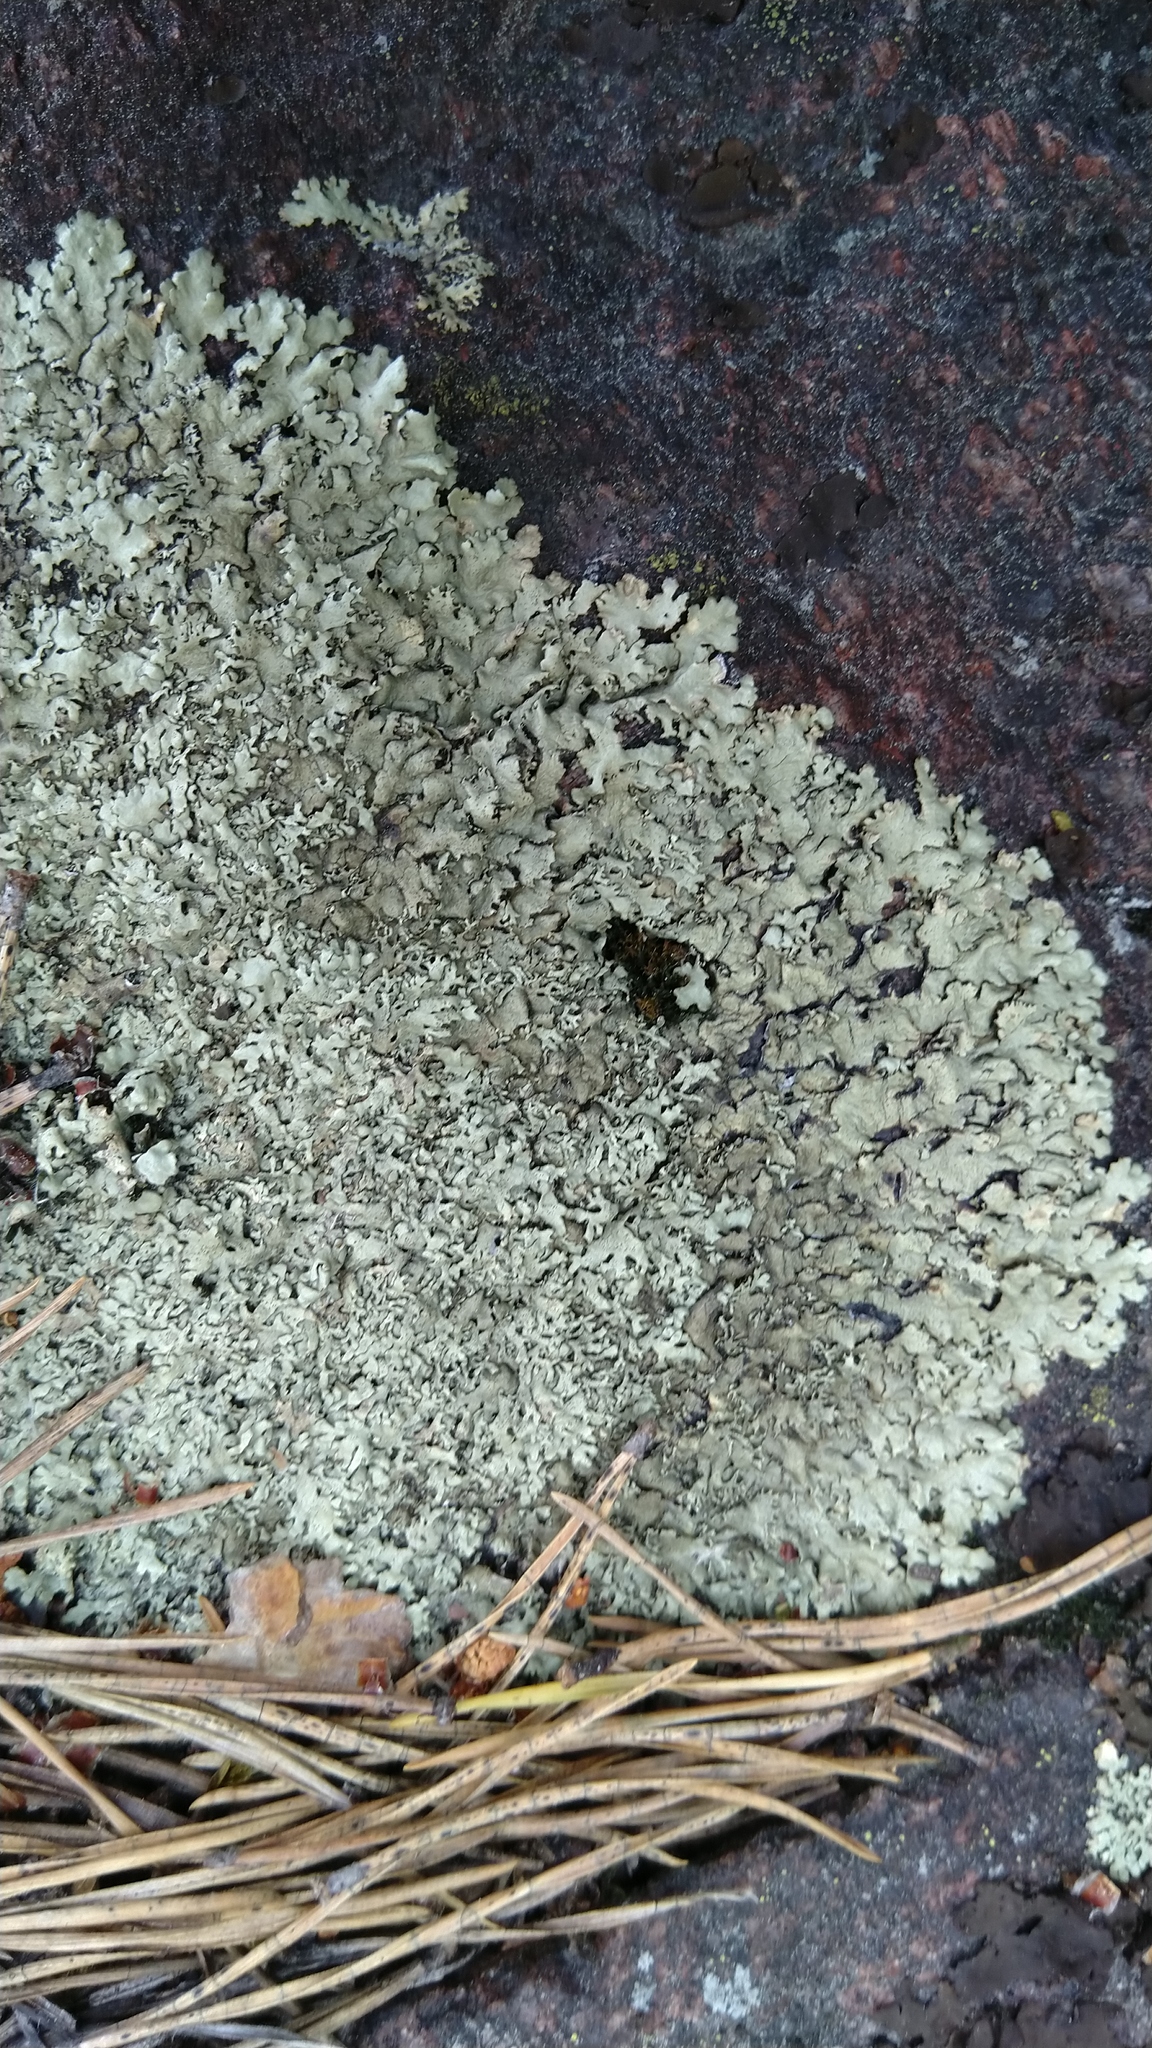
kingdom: Fungi
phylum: Ascomycota
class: Lecanoromycetes
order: Lecanorales
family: Parmeliaceae
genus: Xanthoparmelia
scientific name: Xanthoparmelia stenophylla
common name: Shingled rock shield
